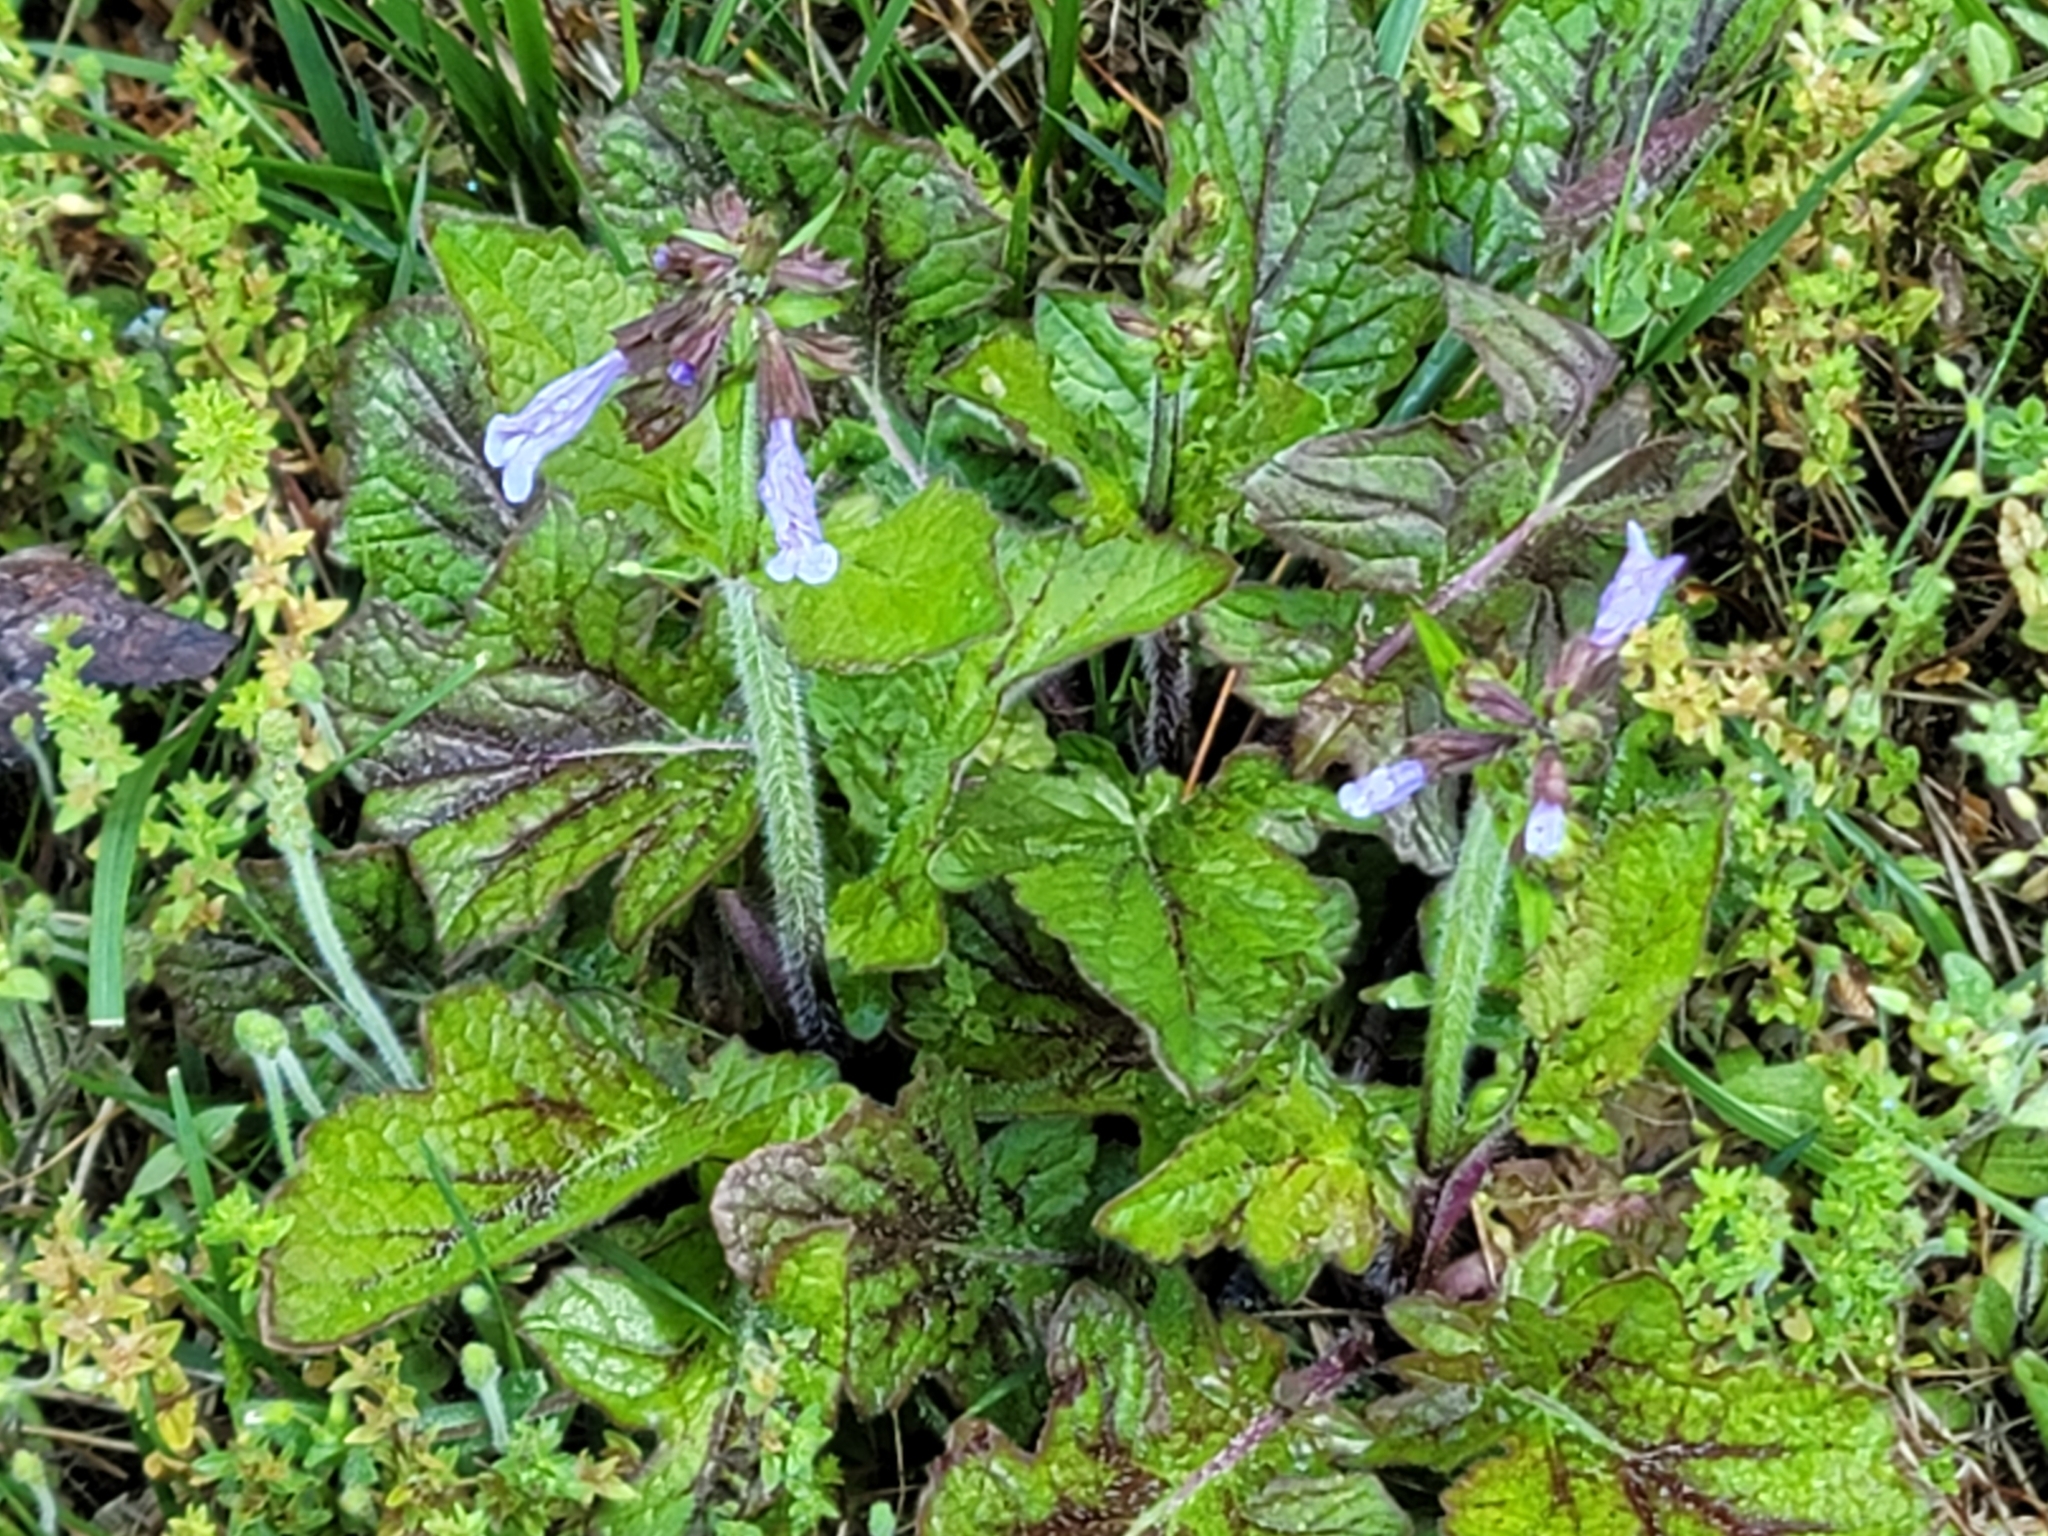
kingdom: Plantae
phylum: Tracheophyta
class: Magnoliopsida
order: Lamiales
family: Lamiaceae
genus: Salvia
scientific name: Salvia lyrata
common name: Cancerweed
